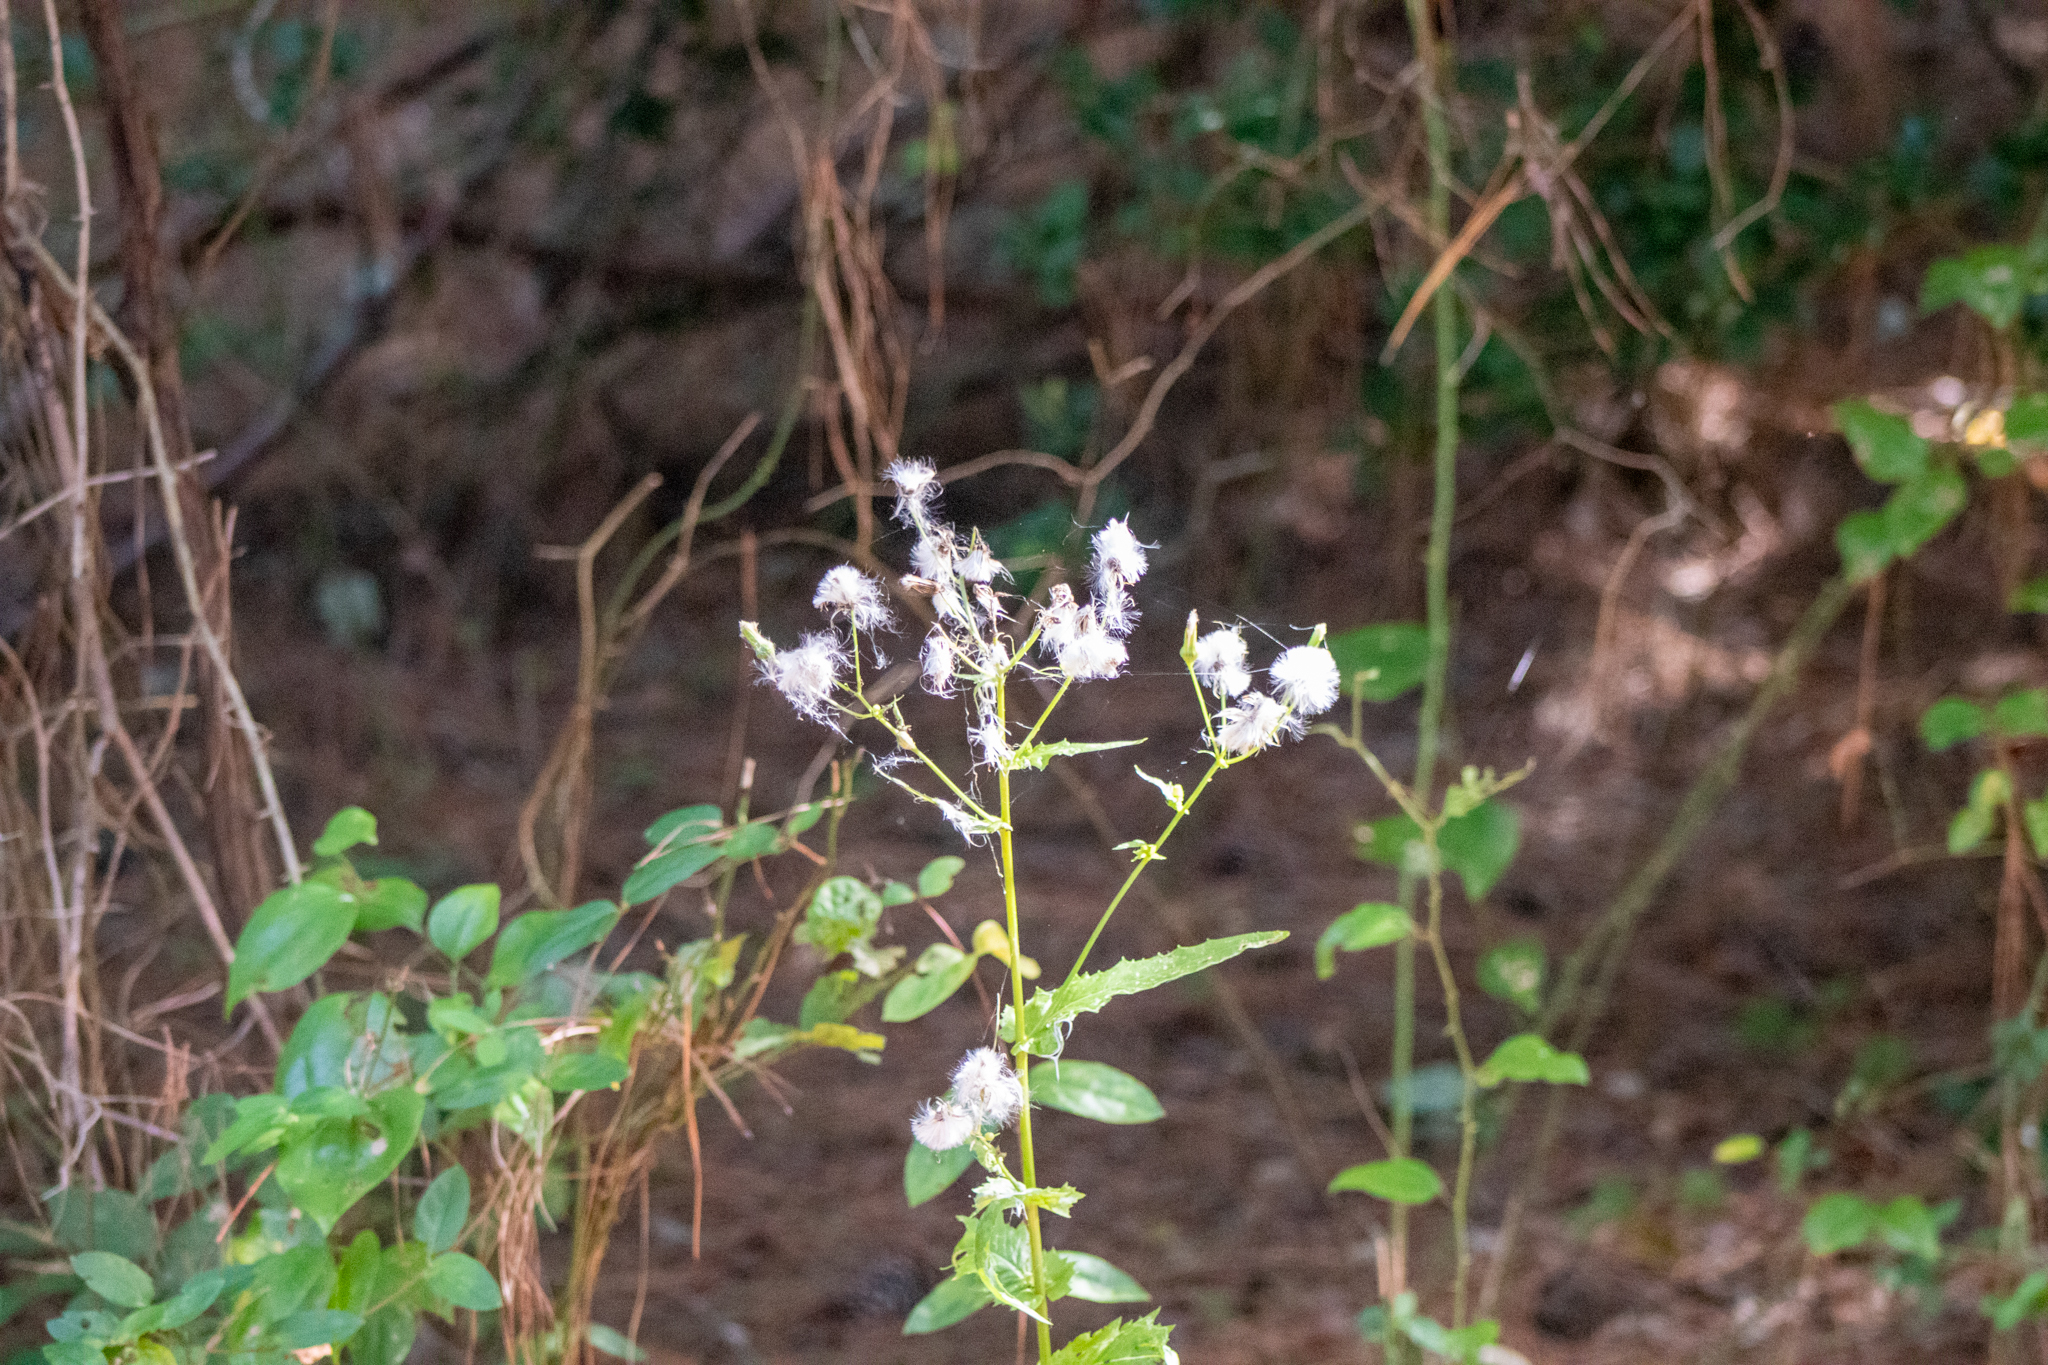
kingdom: Plantae
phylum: Tracheophyta
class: Magnoliopsida
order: Asterales
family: Asteraceae
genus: Erechtites
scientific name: Erechtites hieraciifolius
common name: American burnweed
